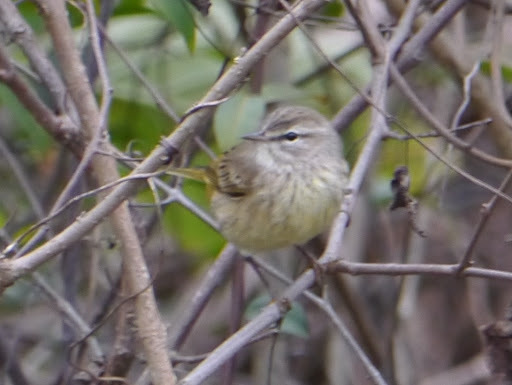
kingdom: Animalia
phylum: Chordata
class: Aves
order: Passeriformes
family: Parulidae
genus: Setophaga
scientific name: Setophaga palmarum
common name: Palm warbler
